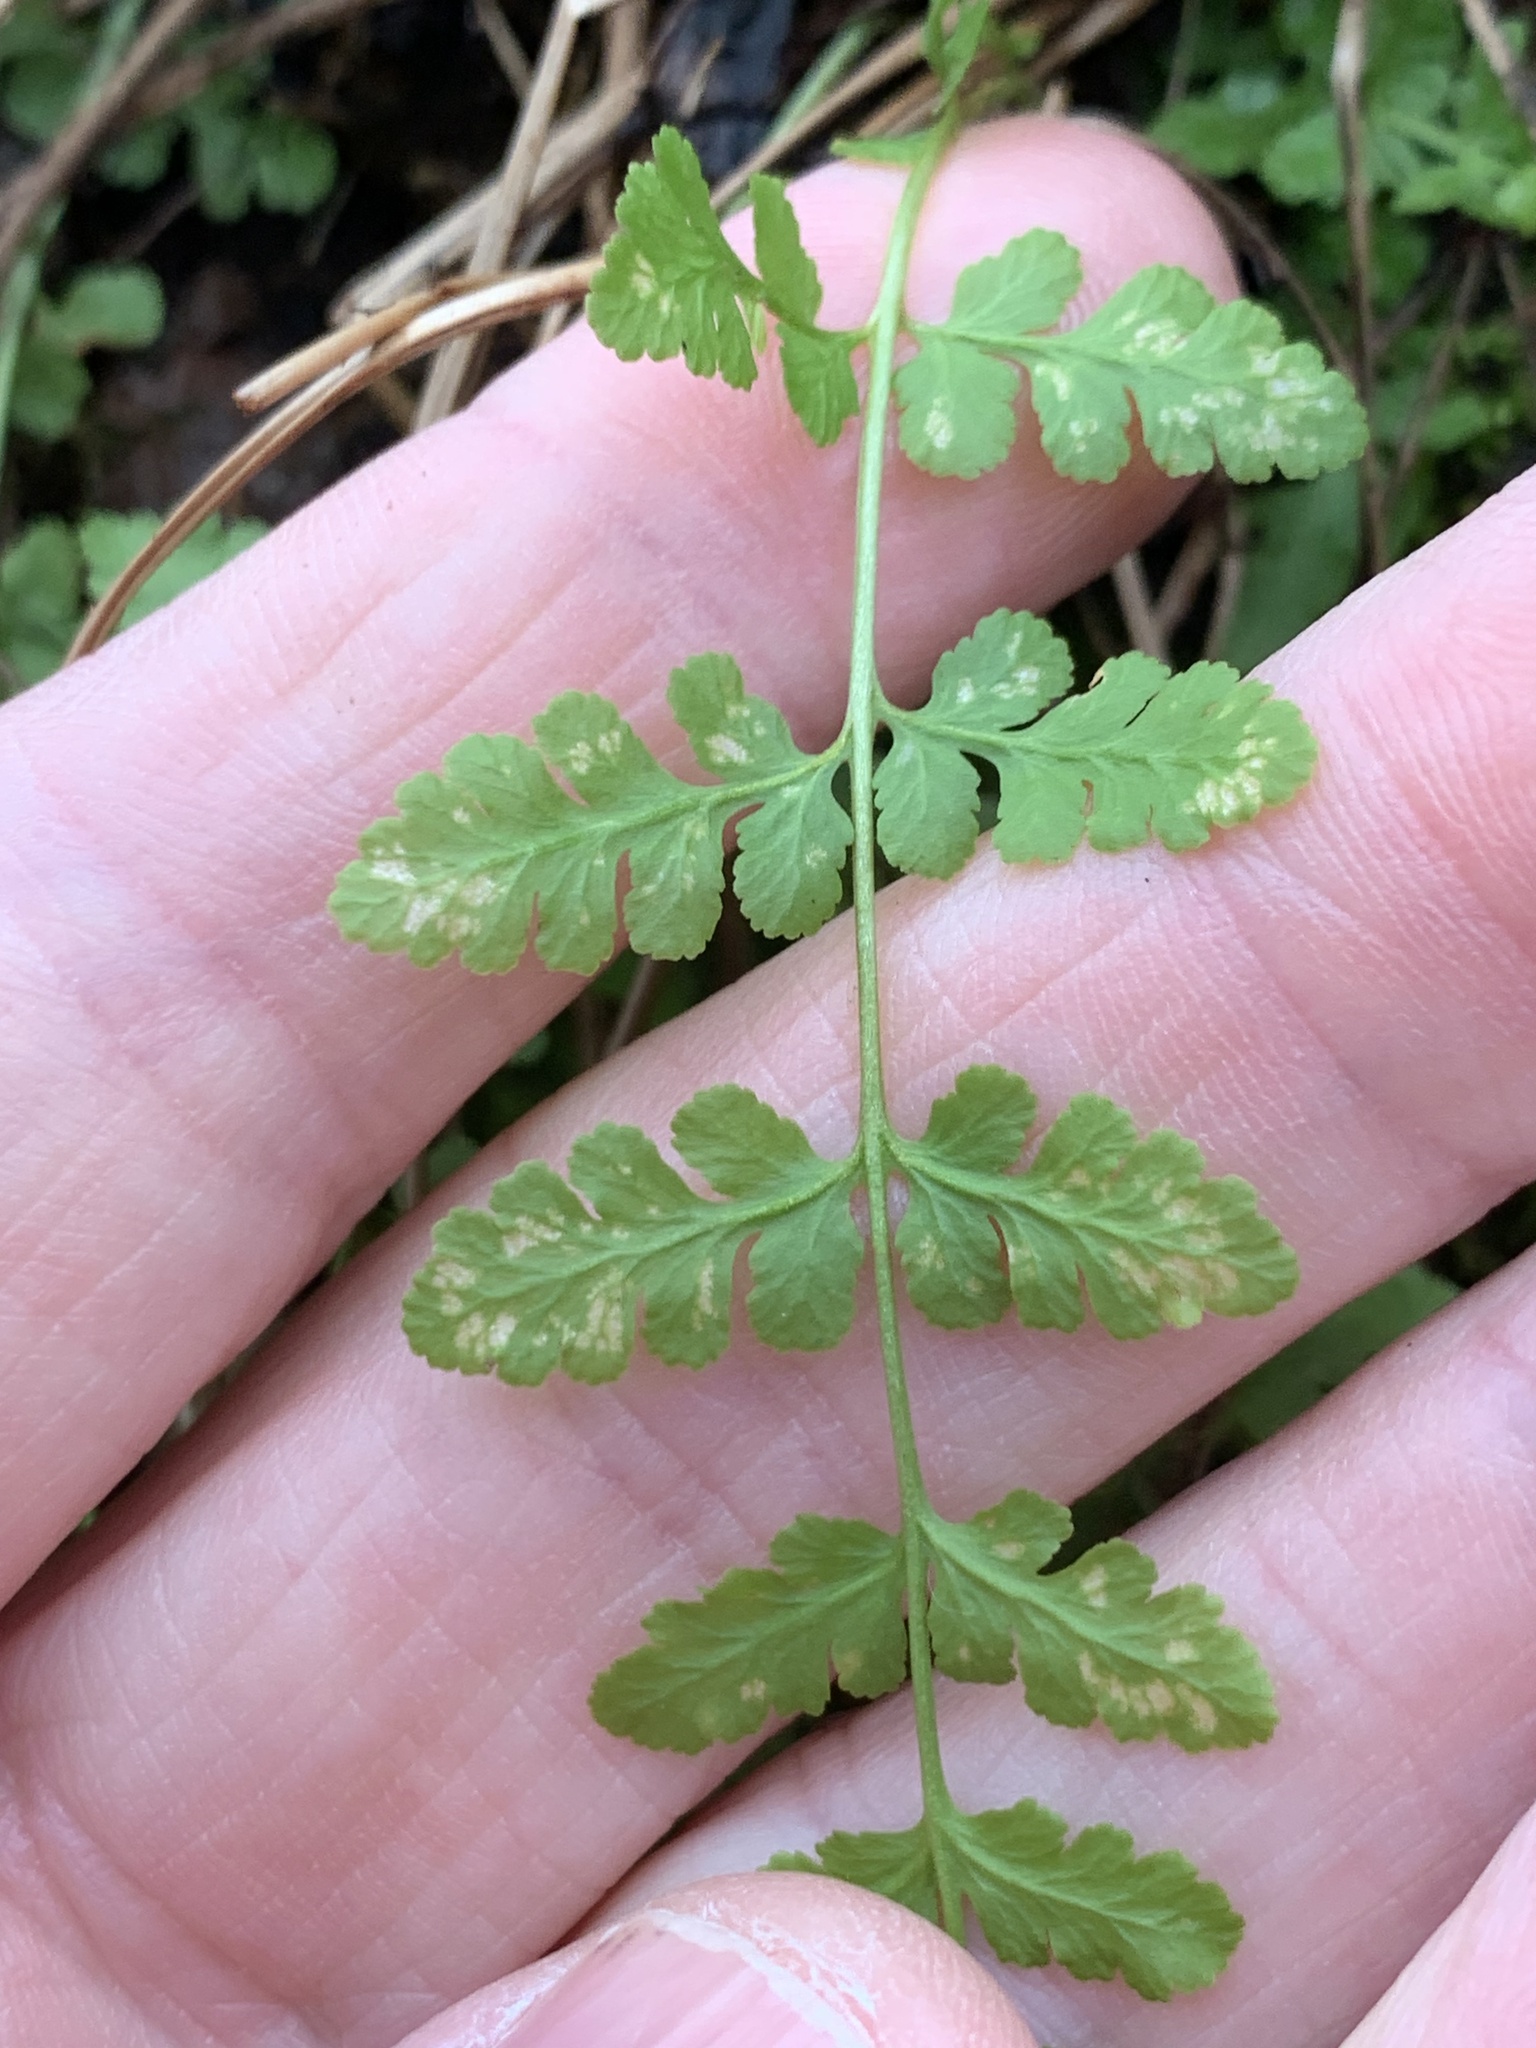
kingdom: Plantae
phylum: Tracheophyta
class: Polypodiopsida
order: Polypodiales
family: Woodsiaceae
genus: Physematium
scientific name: Physematium obtusum
